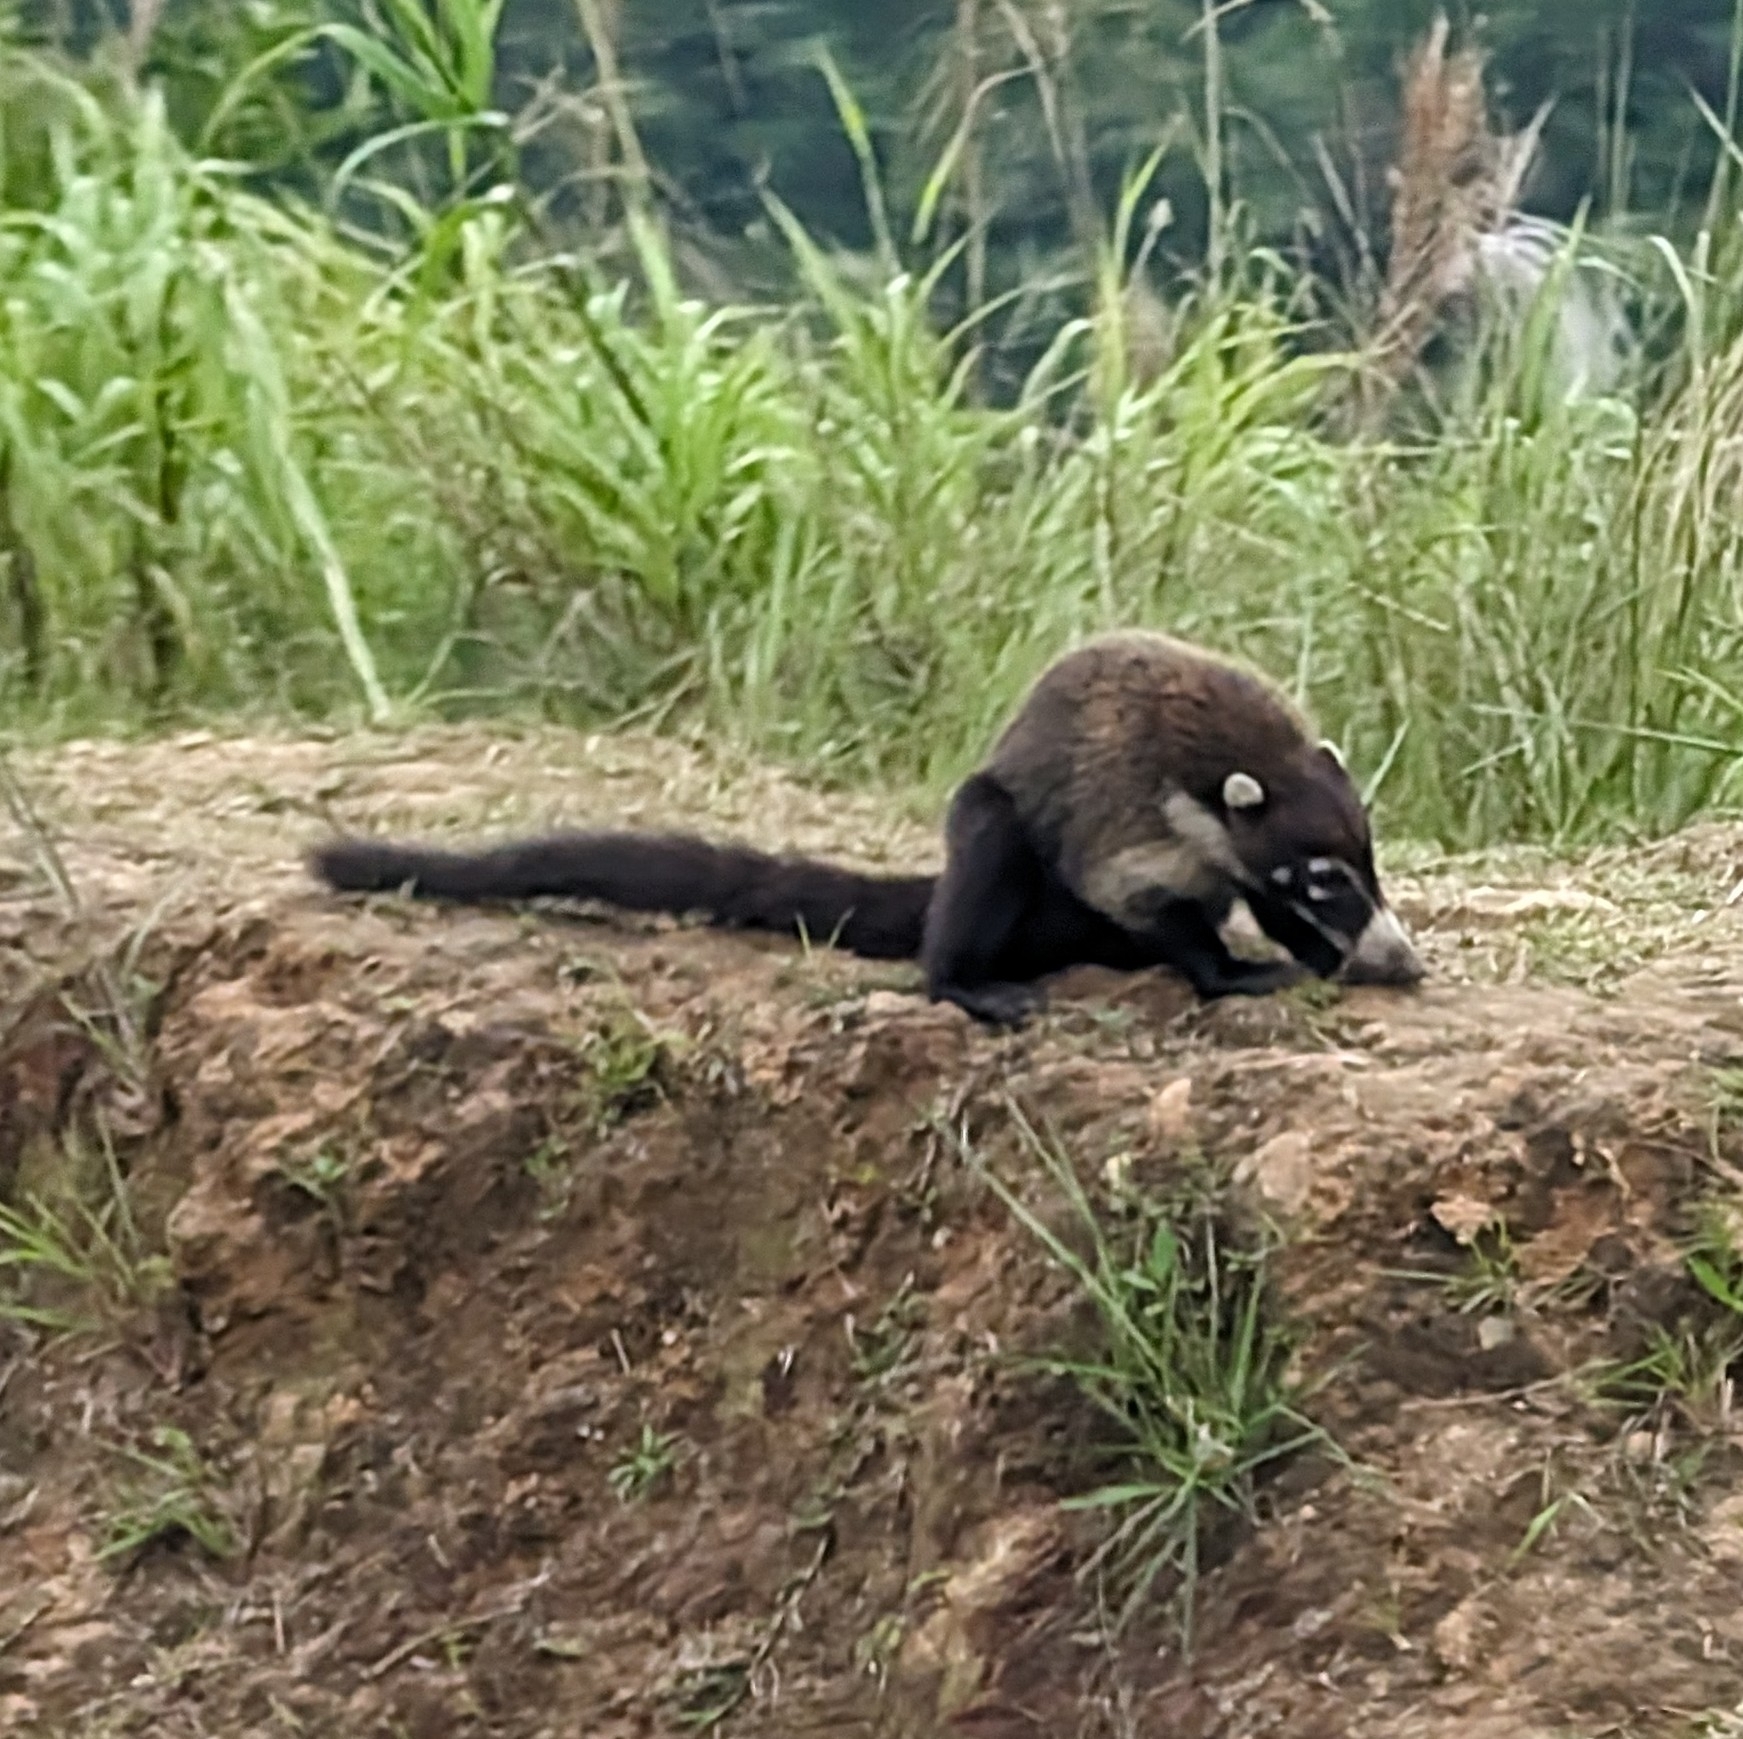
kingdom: Animalia
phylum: Chordata
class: Mammalia
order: Carnivora
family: Procyonidae
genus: Nasua
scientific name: Nasua narica
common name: White-nosed coati
